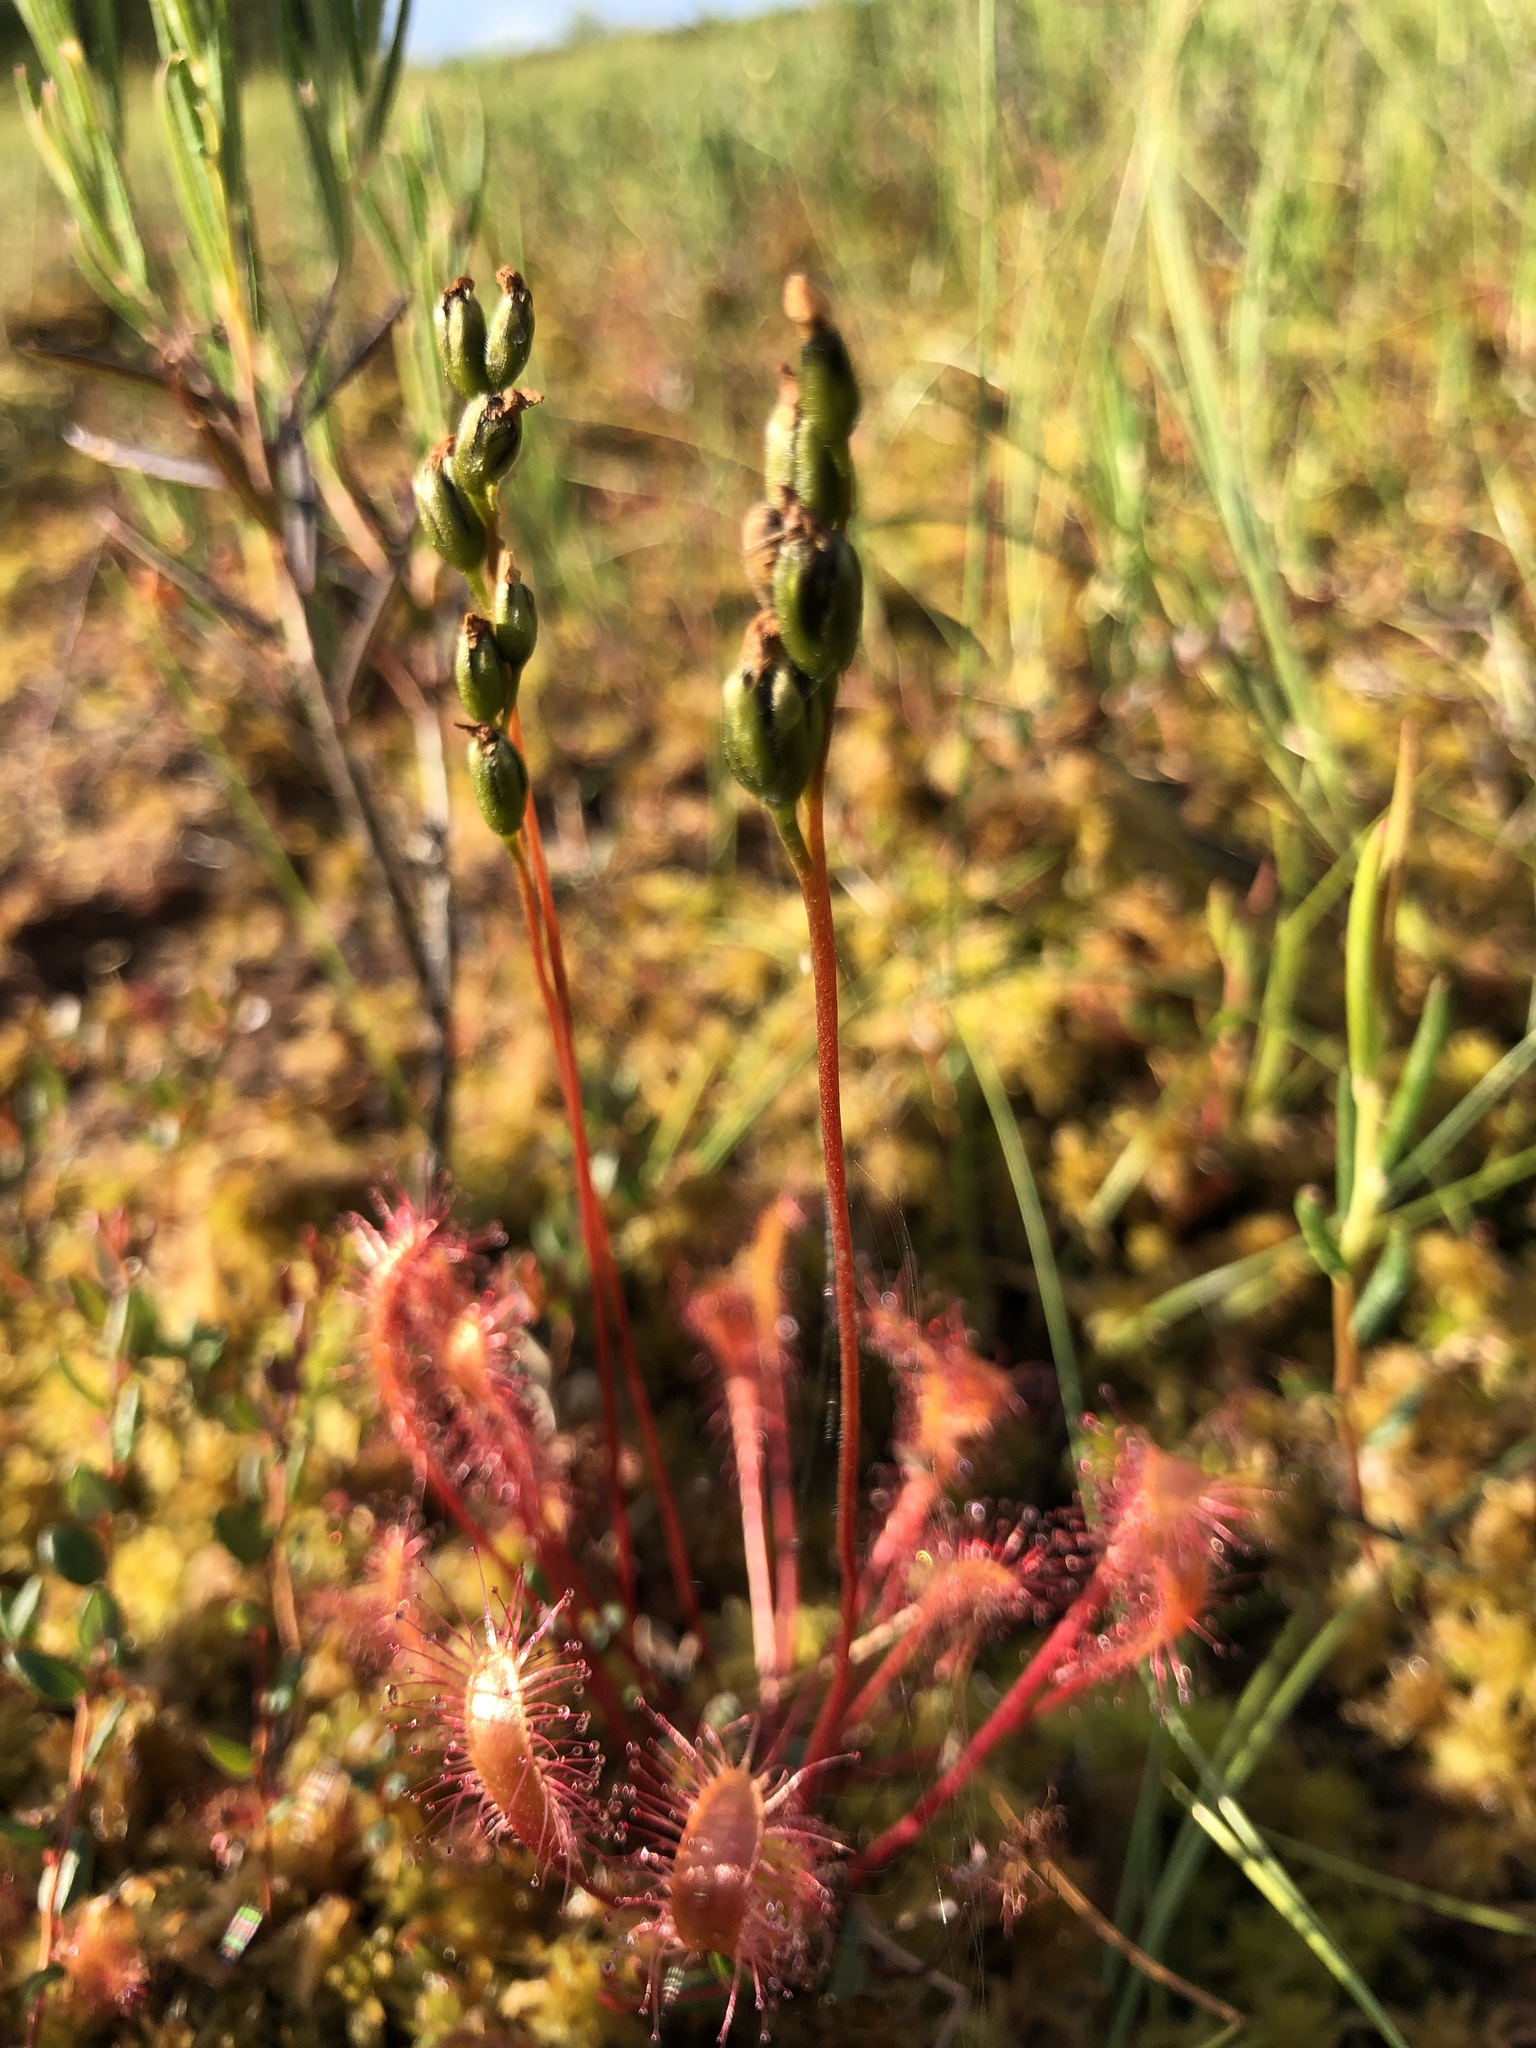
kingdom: Plantae
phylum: Tracheophyta
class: Magnoliopsida
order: Caryophyllales
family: Droseraceae
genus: Drosera
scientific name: Drosera obovata
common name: Ivan's paddle
